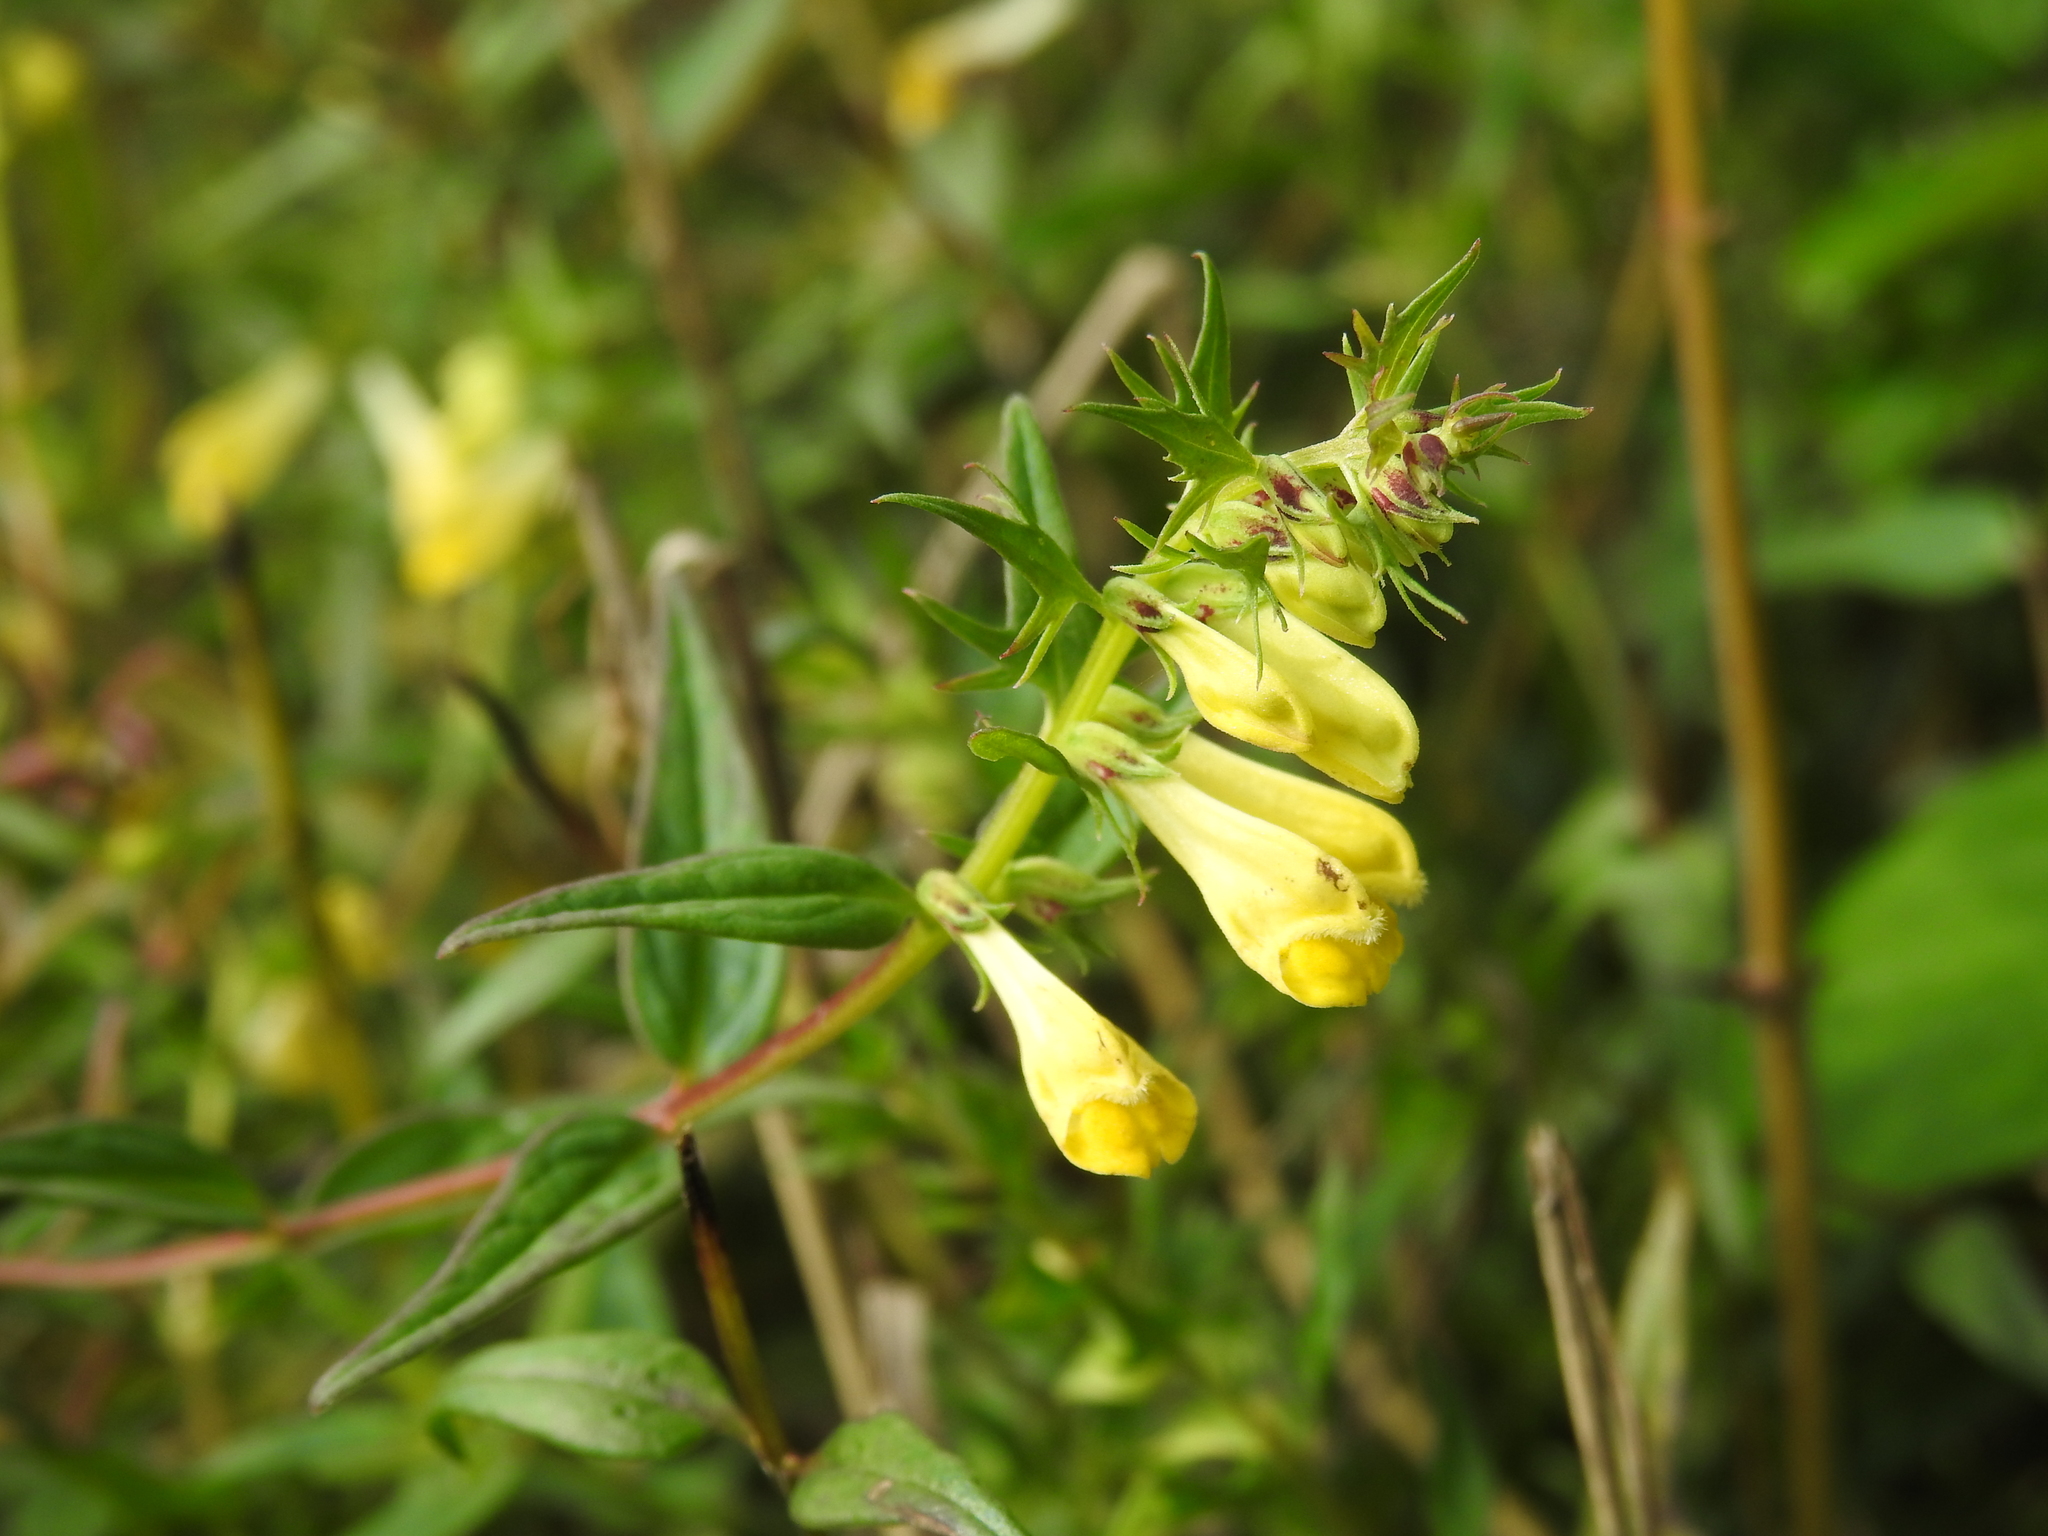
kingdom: Plantae
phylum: Tracheophyta
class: Magnoliopsida
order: Lamiales
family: Orobanchaceae
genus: Melampyrum
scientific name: Melampyrum pratense
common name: Common cow-wheat
